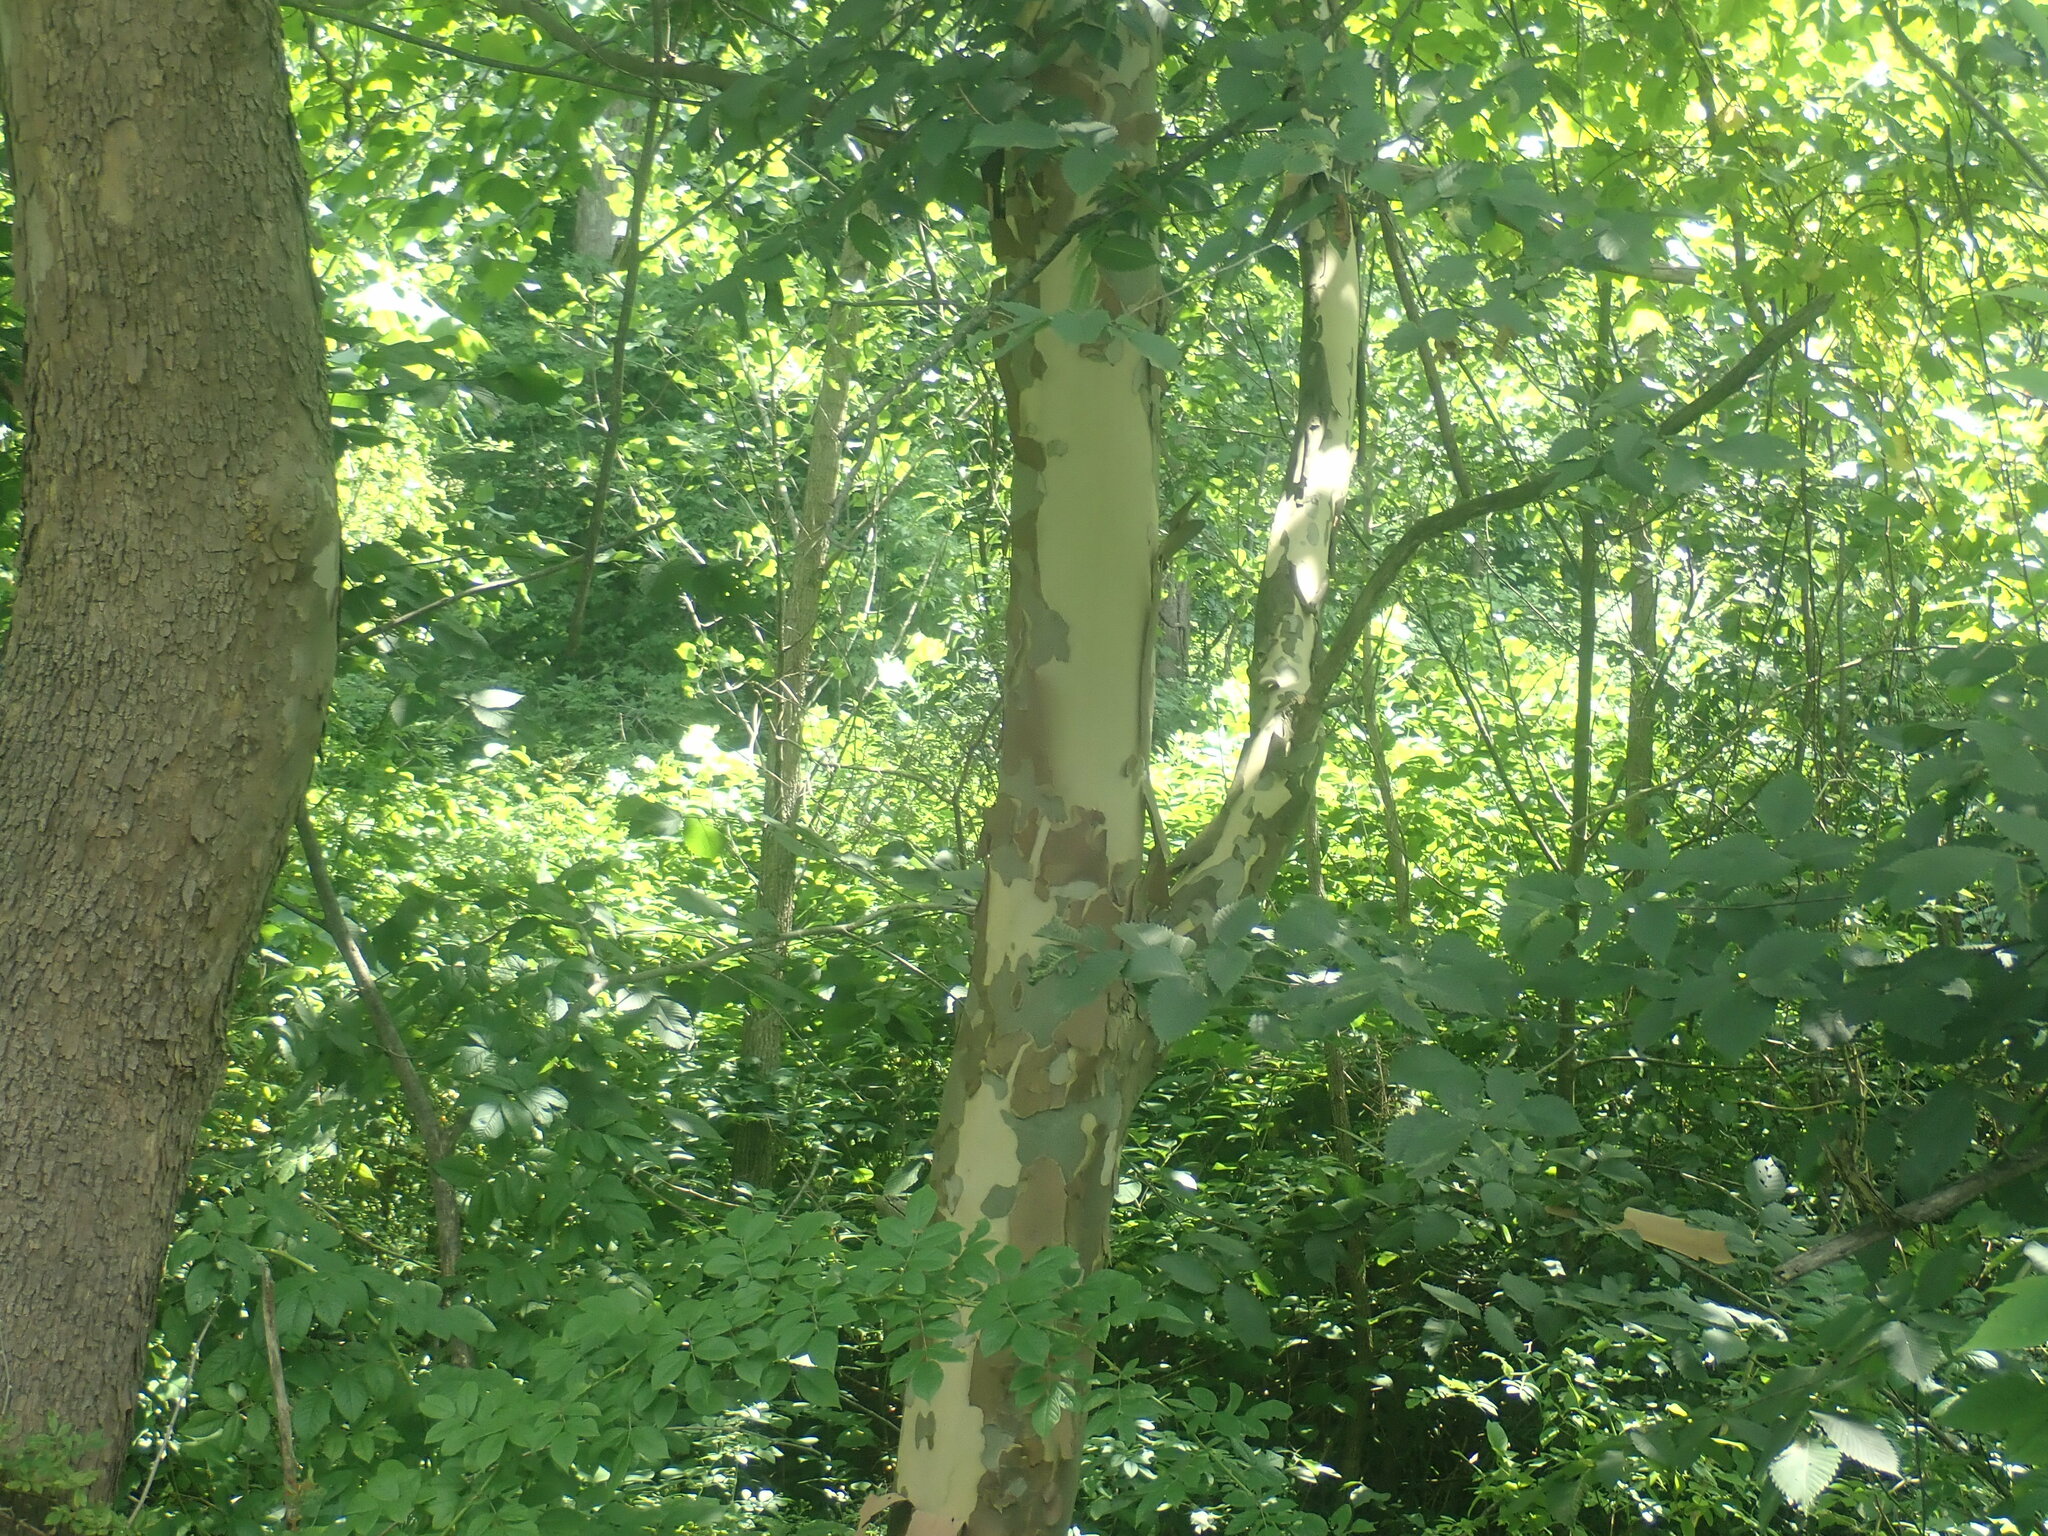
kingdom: Plantae
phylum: Tracheophyta
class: Magnoliopsida
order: Proteales
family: Platanaceae
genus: Platanus
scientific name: Platanus occidentalis
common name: American sycamore
